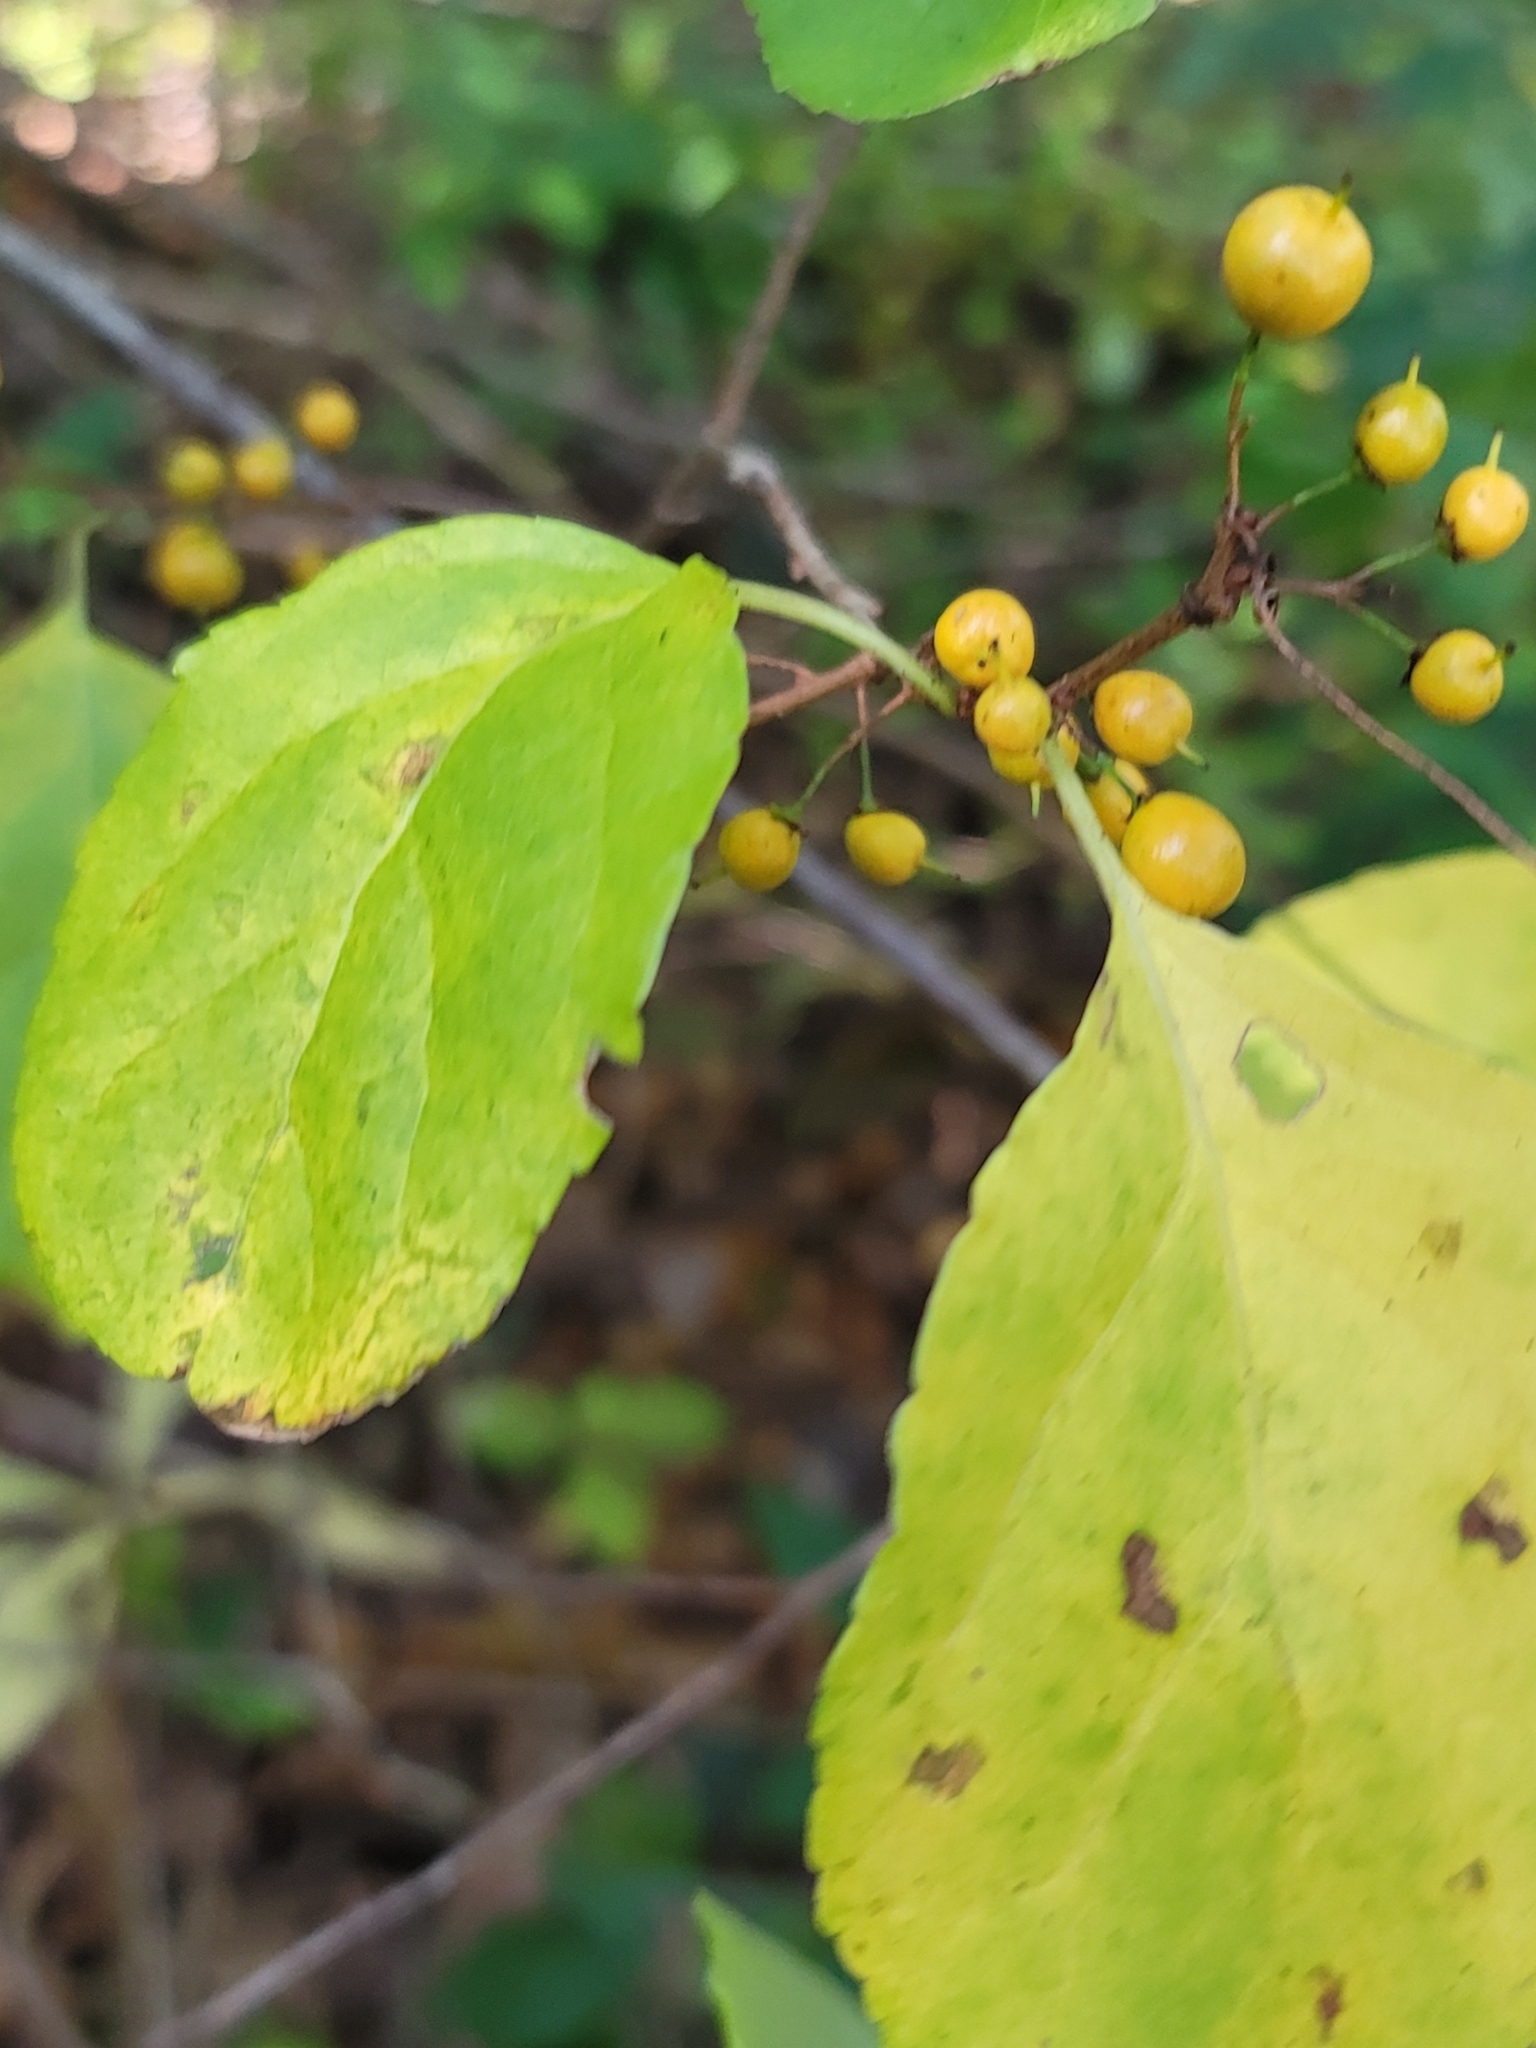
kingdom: Plantae
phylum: Tracheophyta
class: Magnoliopsida
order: Celastrales
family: Celastraceae
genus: Celastrus
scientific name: Celastrus orbiculatus
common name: Oriental bittersweet
